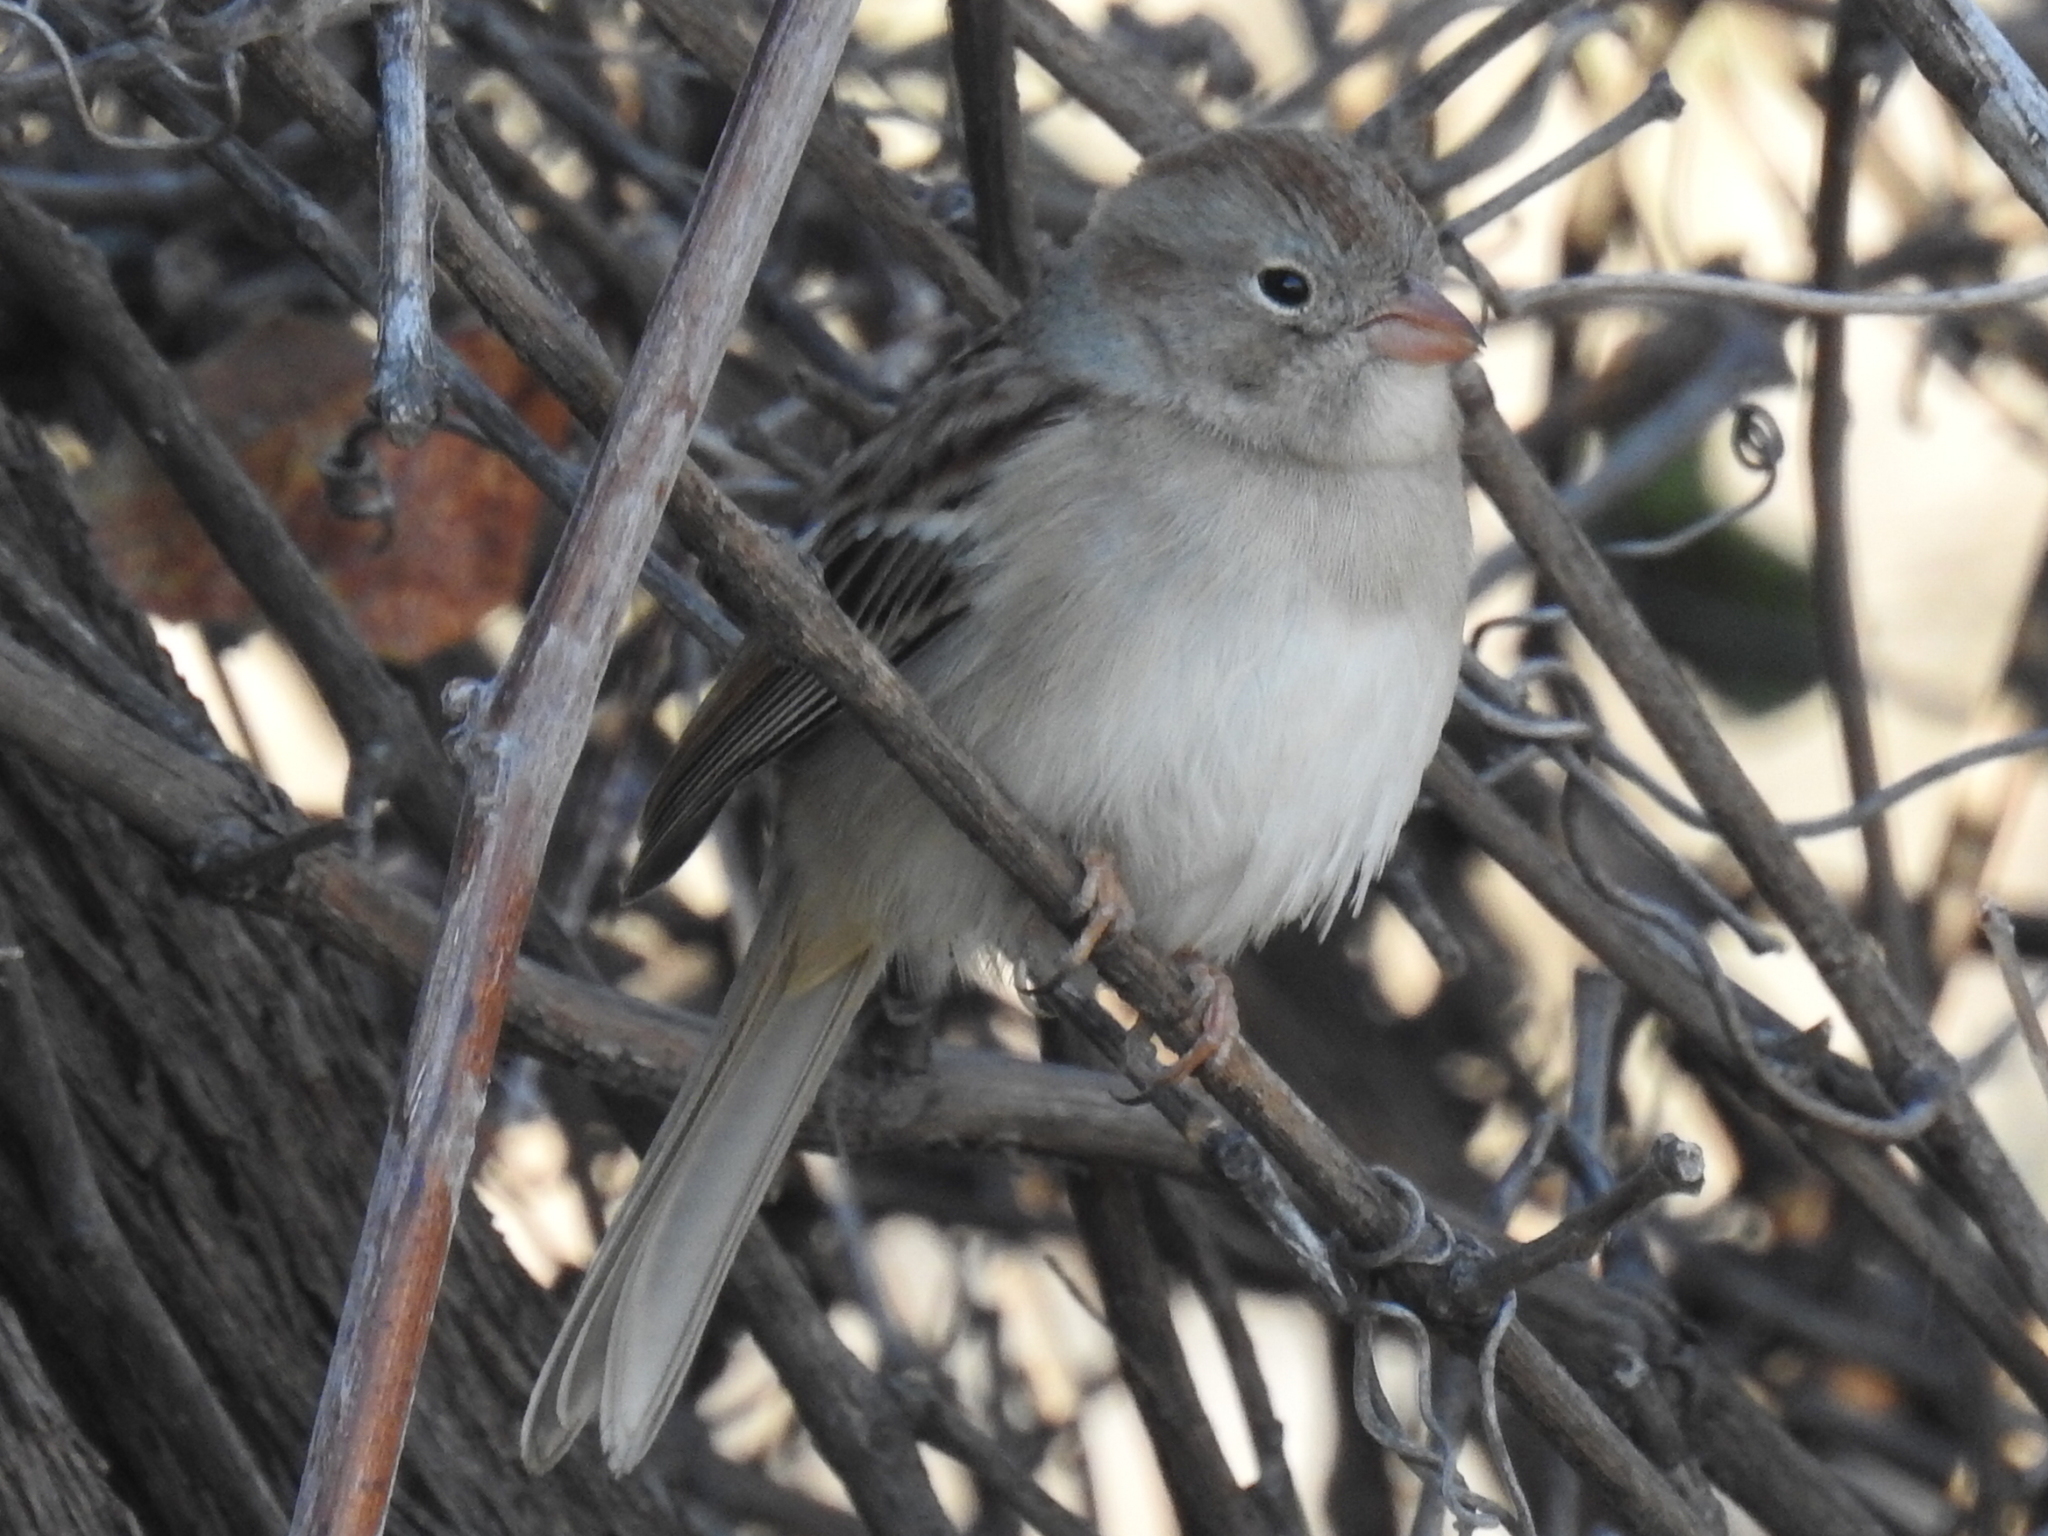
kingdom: Animalia
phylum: Chordata
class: Aves
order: Passeriformes
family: Passerellidae
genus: Spizella
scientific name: Spizella pusilla
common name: Field sparrow
